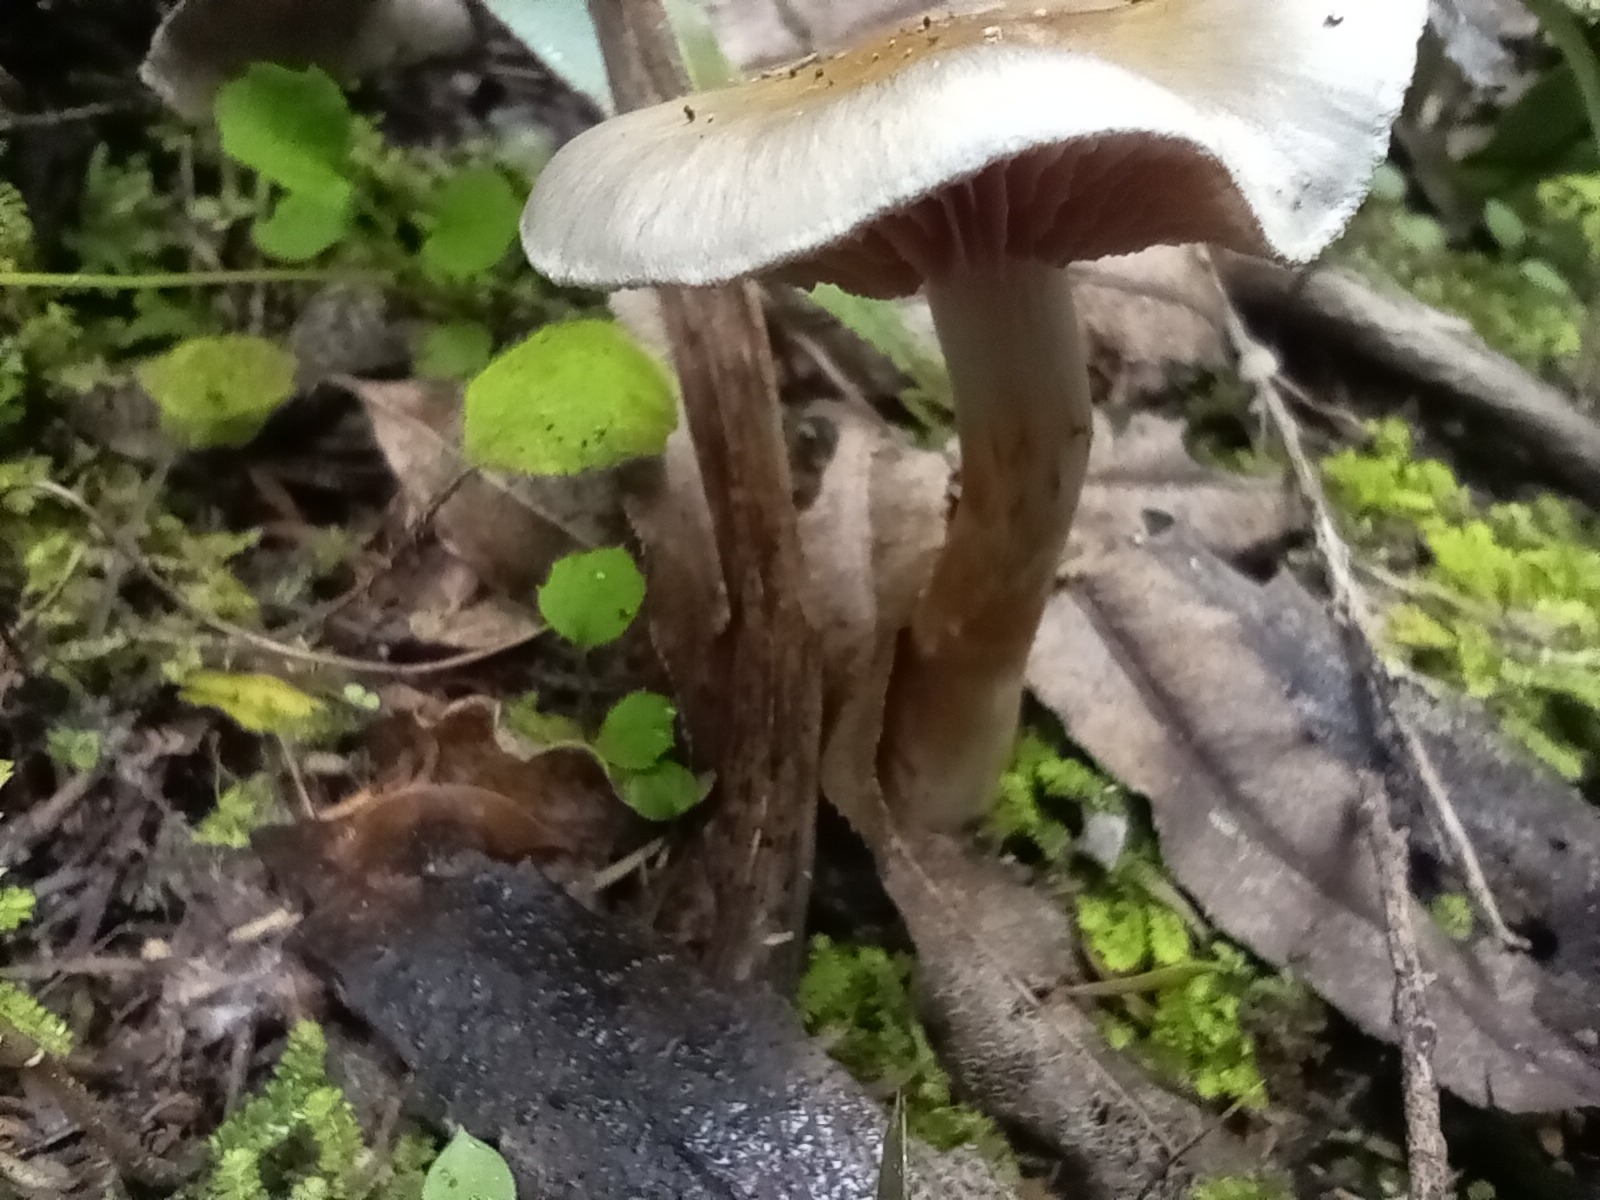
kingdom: Fungi
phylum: Basidiomycota
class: Agaricomycetes
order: Agaricales
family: Cortinariaceae
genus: Cortinarius
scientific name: Cortinarius rotundisporus
